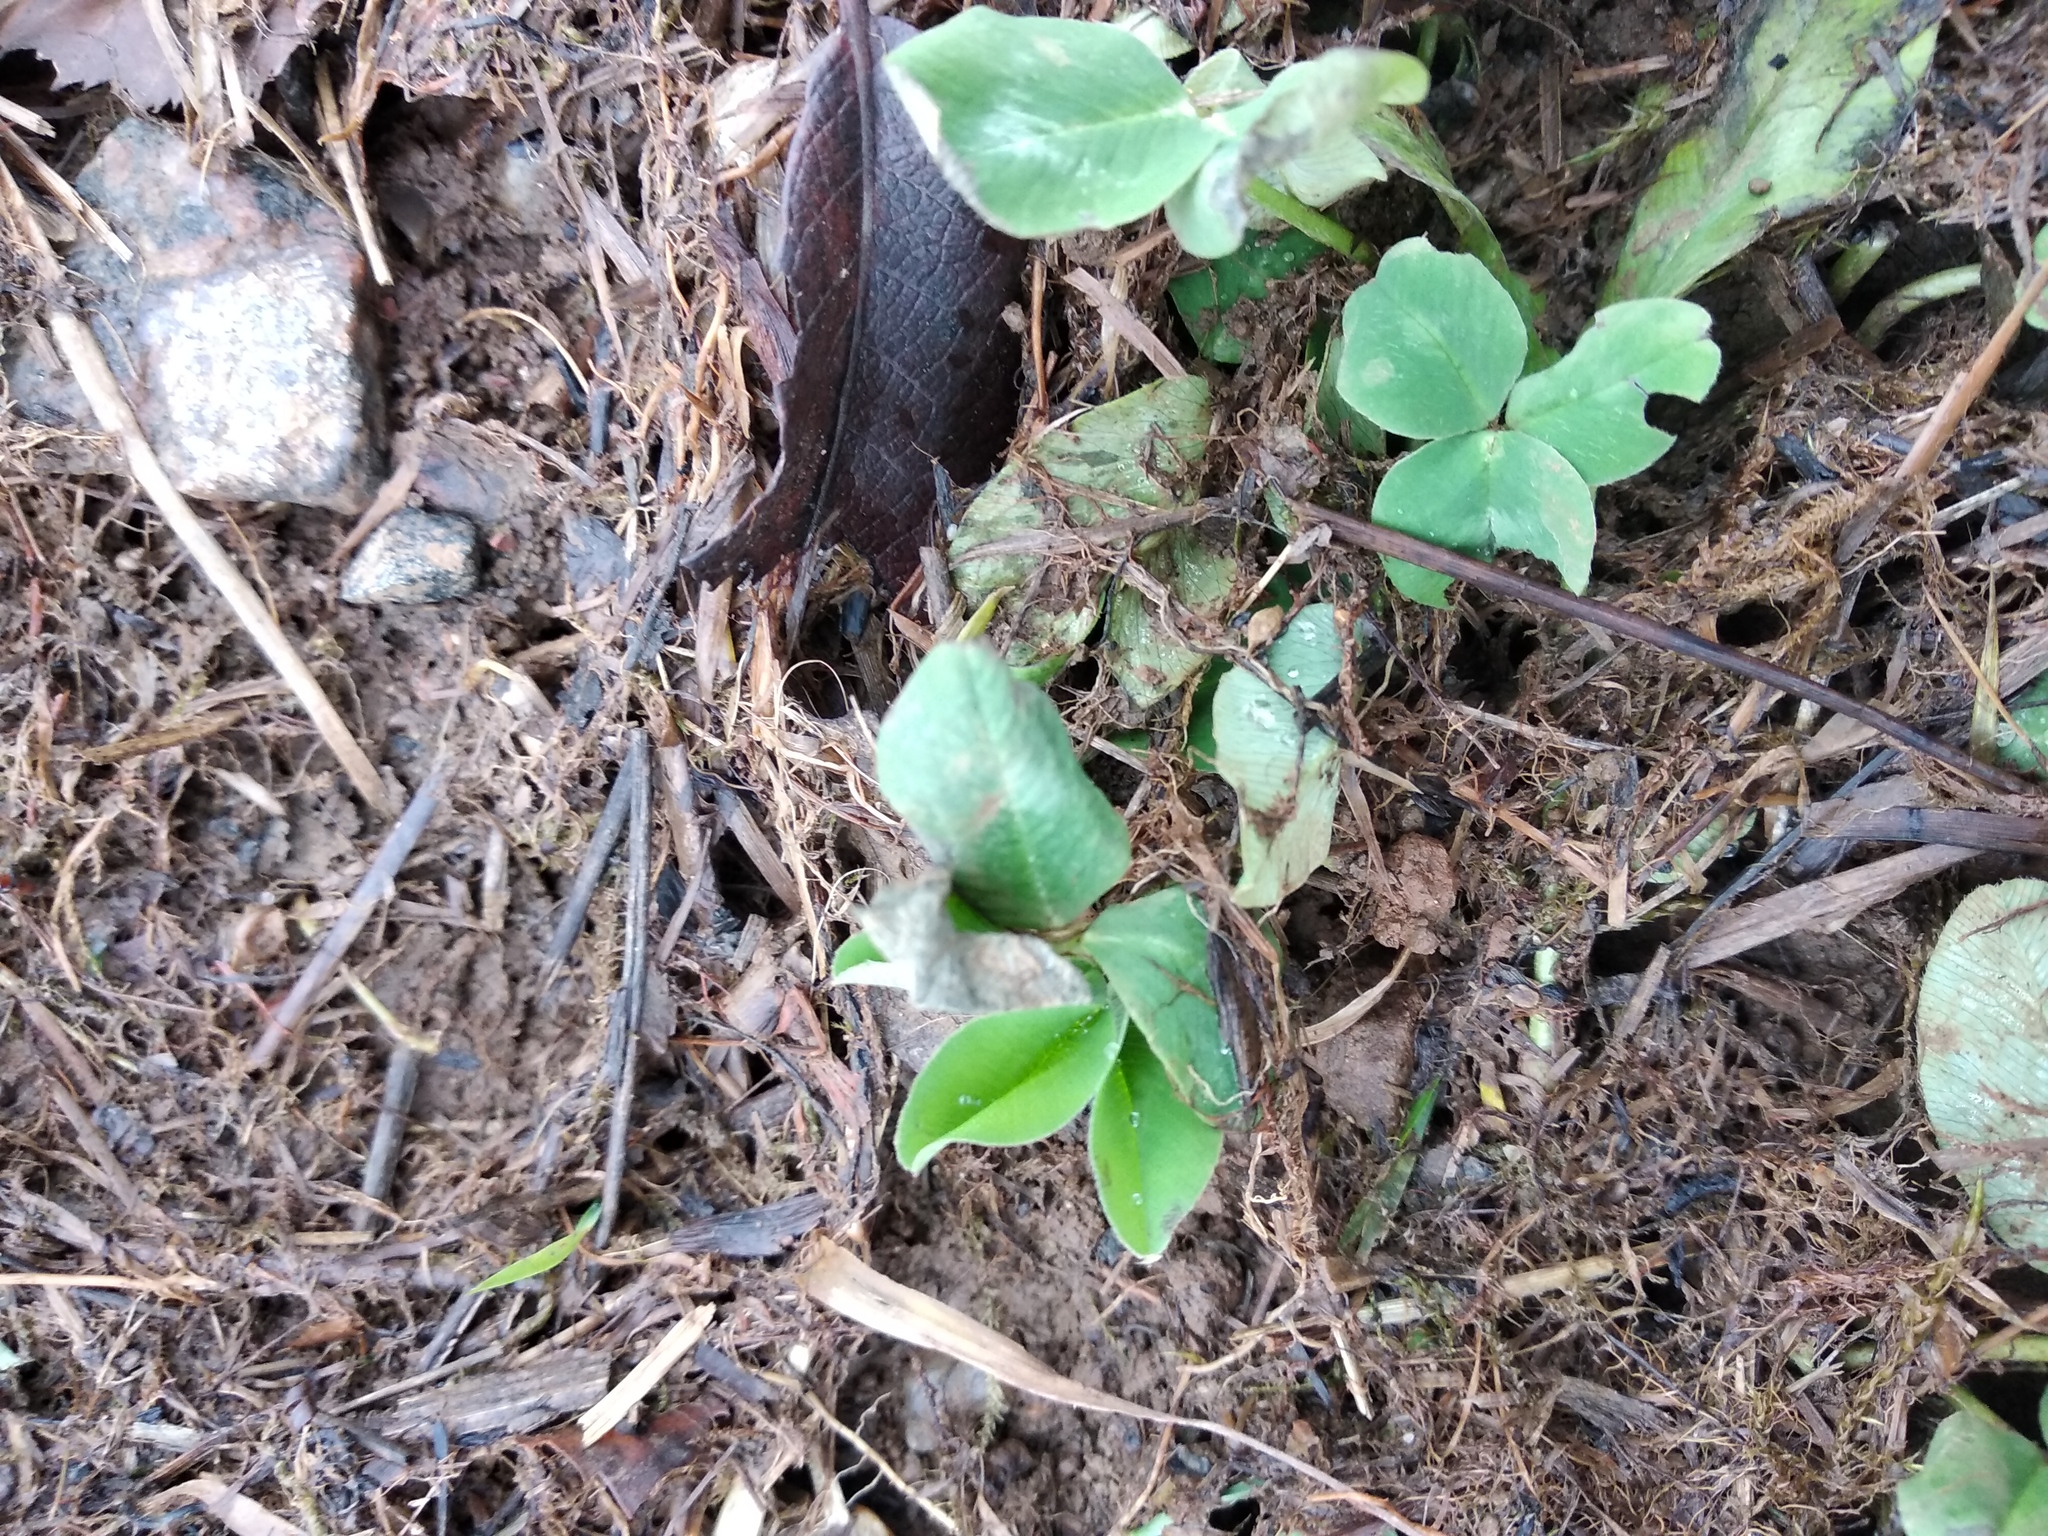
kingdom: Plantae
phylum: Tracheophyta
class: Magnoliopsida
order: Fabales
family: Fabaceae
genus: Trifolium
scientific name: Trifolium repens
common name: White clover
